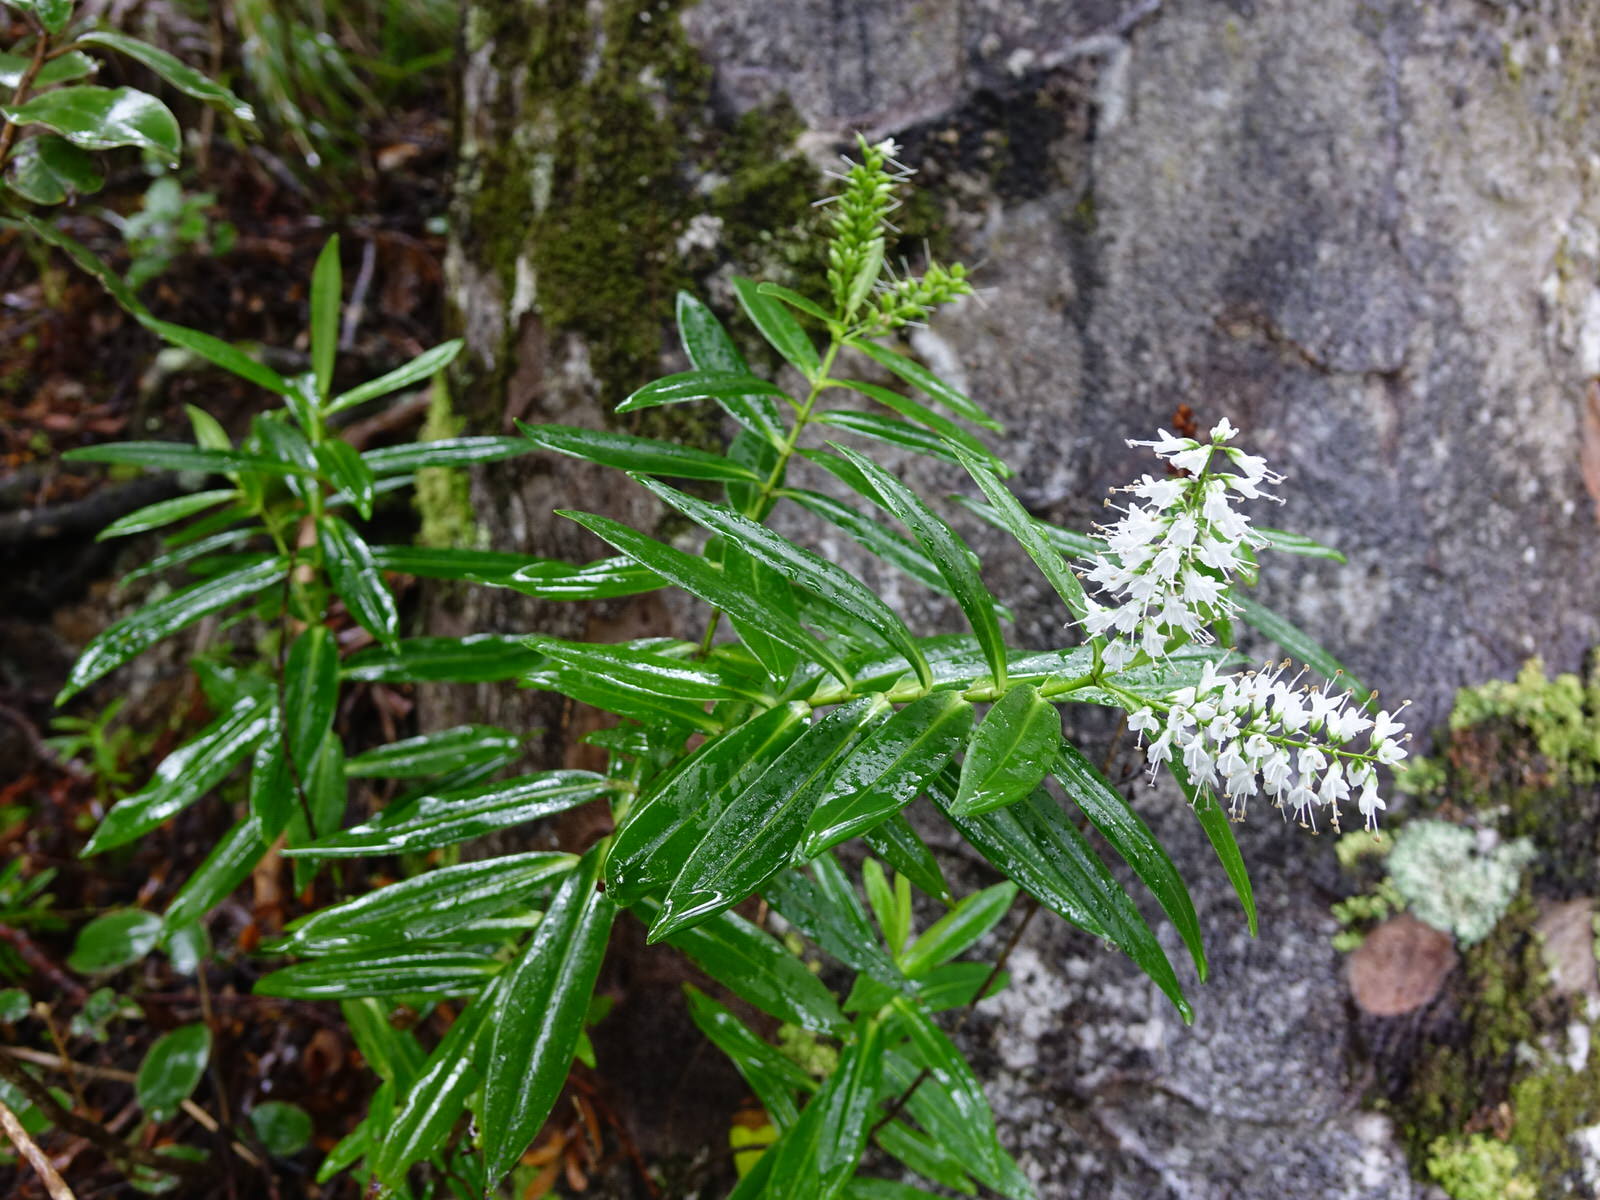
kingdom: Plantae
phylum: Tracheophyta
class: Magnoliopsida
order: Lamiales
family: Plantaginaceae
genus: Veronica
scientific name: Veronica macrocarpa
